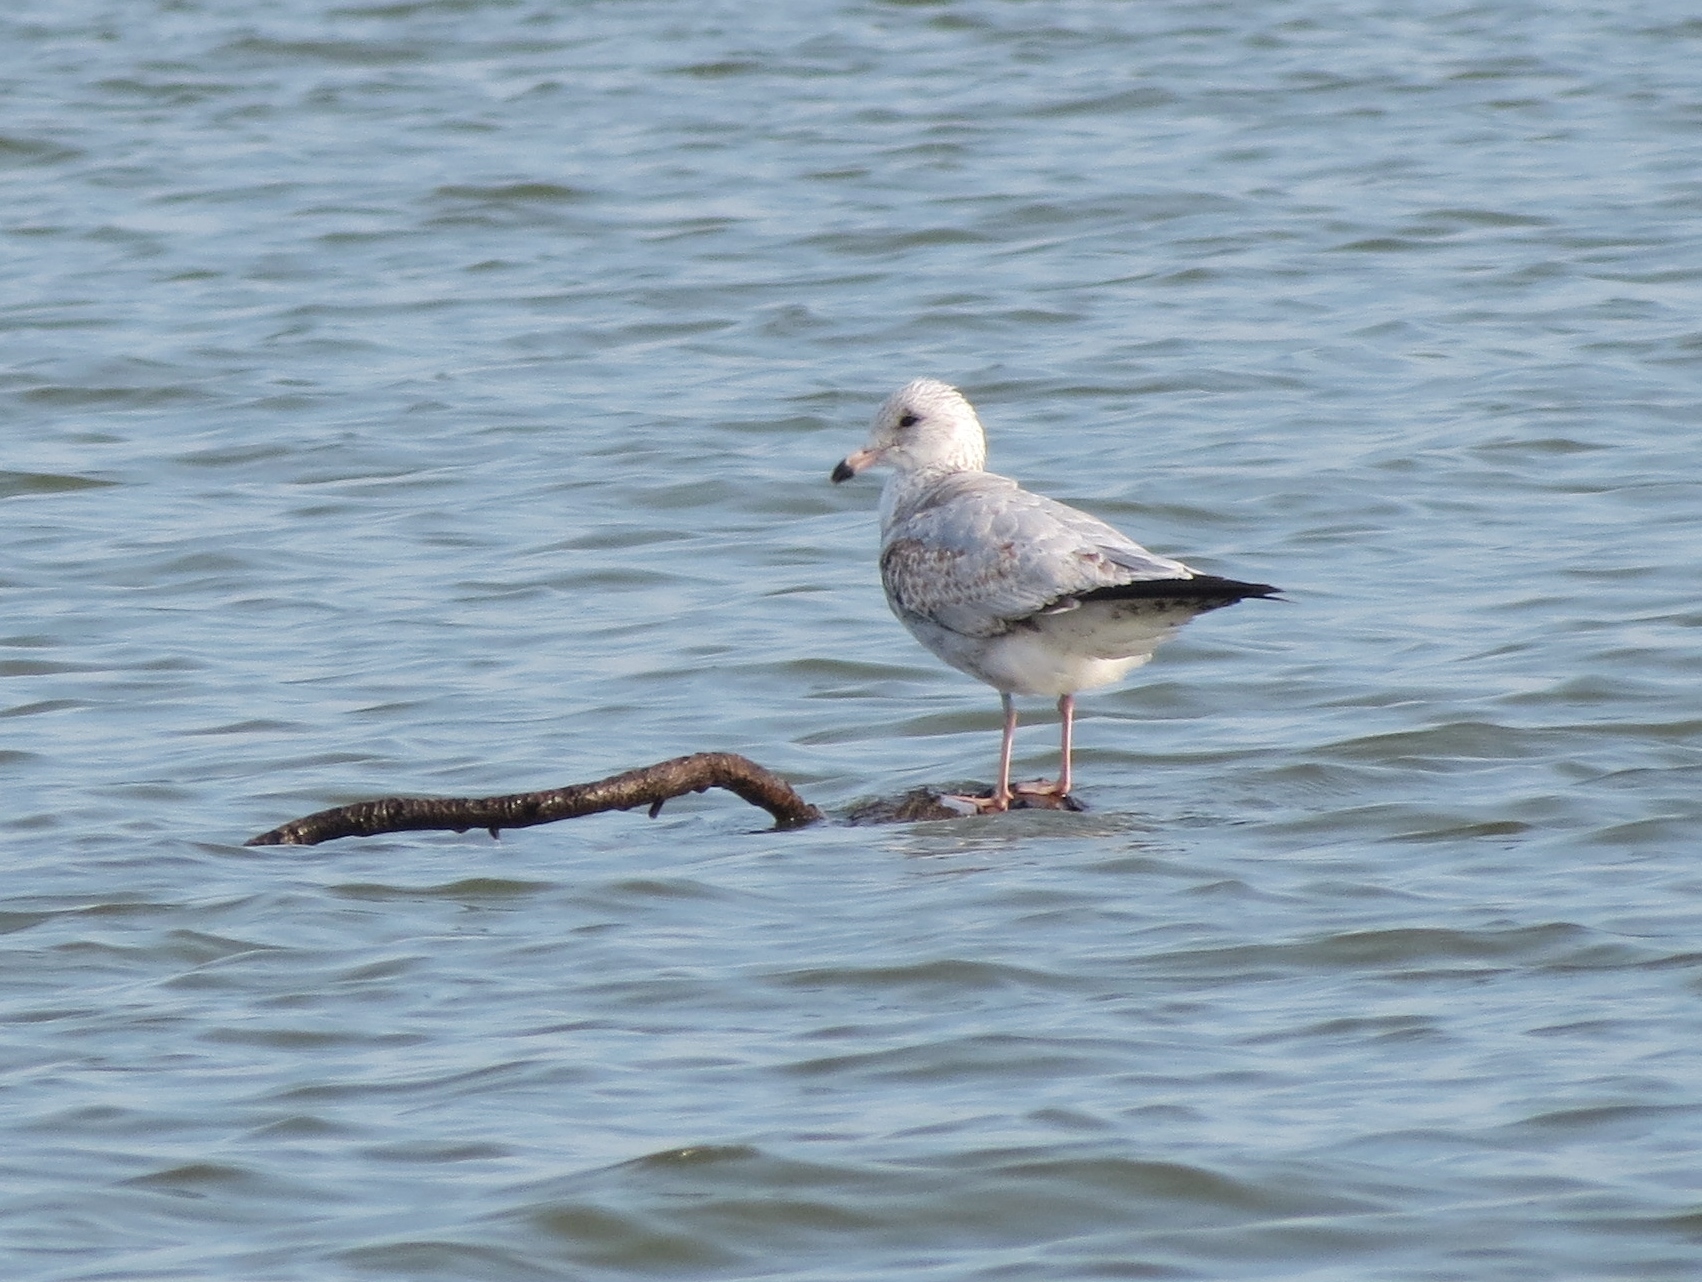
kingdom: Animalia
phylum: Chordata
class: Aves
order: Charadriiformes
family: Laridae
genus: Larus
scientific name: Larus delawarensis
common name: Ring-billed gull
